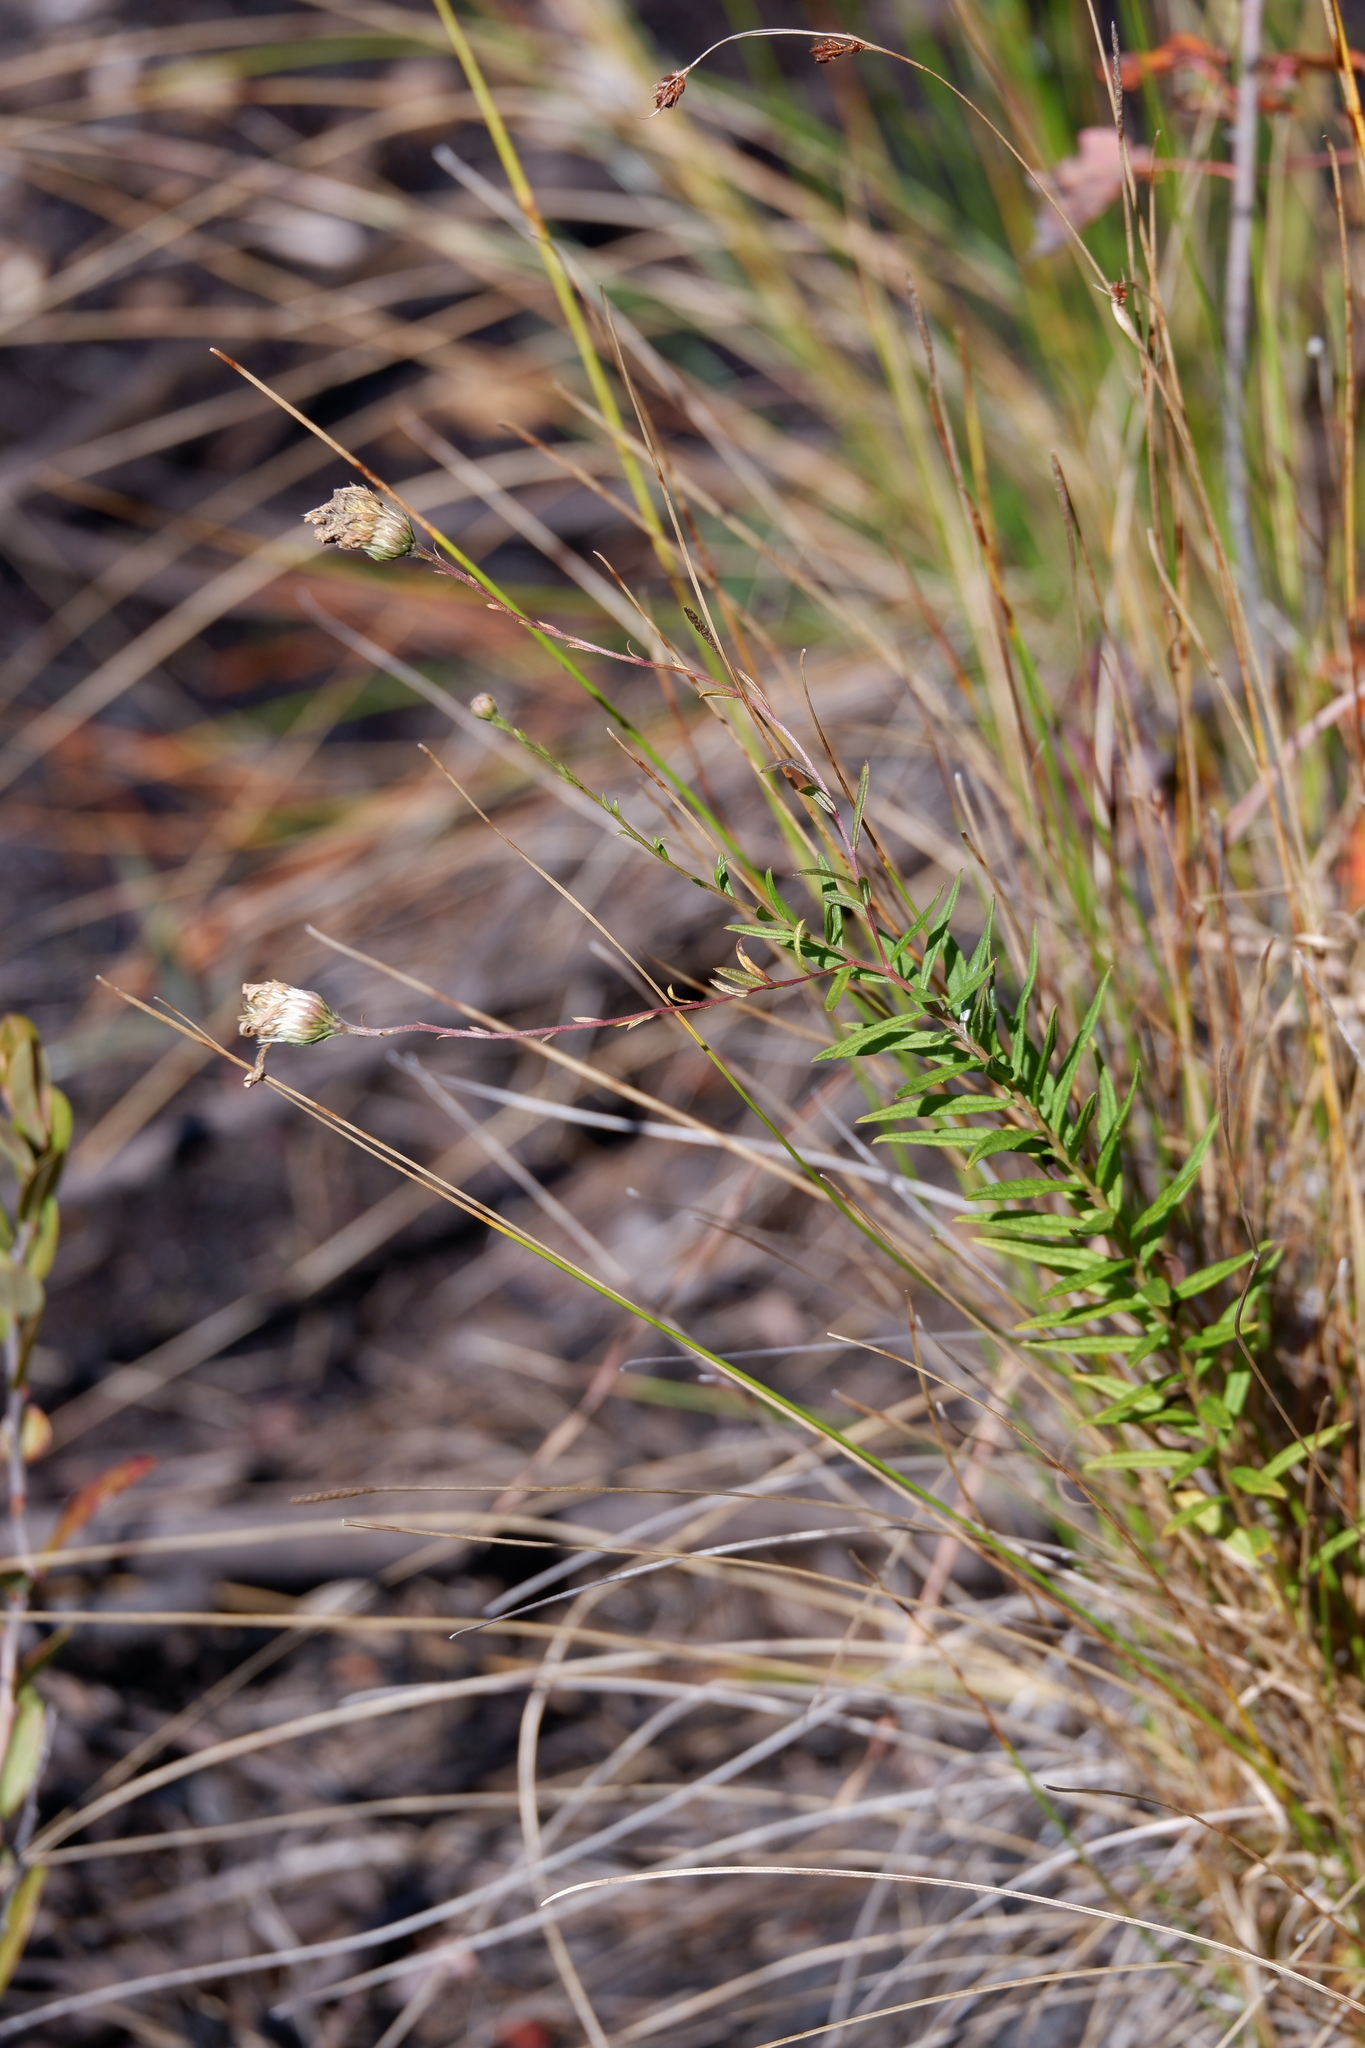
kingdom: Plantae
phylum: Tracheophyta
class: Magnoliopsida
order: Asterales
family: Asteraceae
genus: Oclemena
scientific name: Oclemena nemoralis
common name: Bog aster
